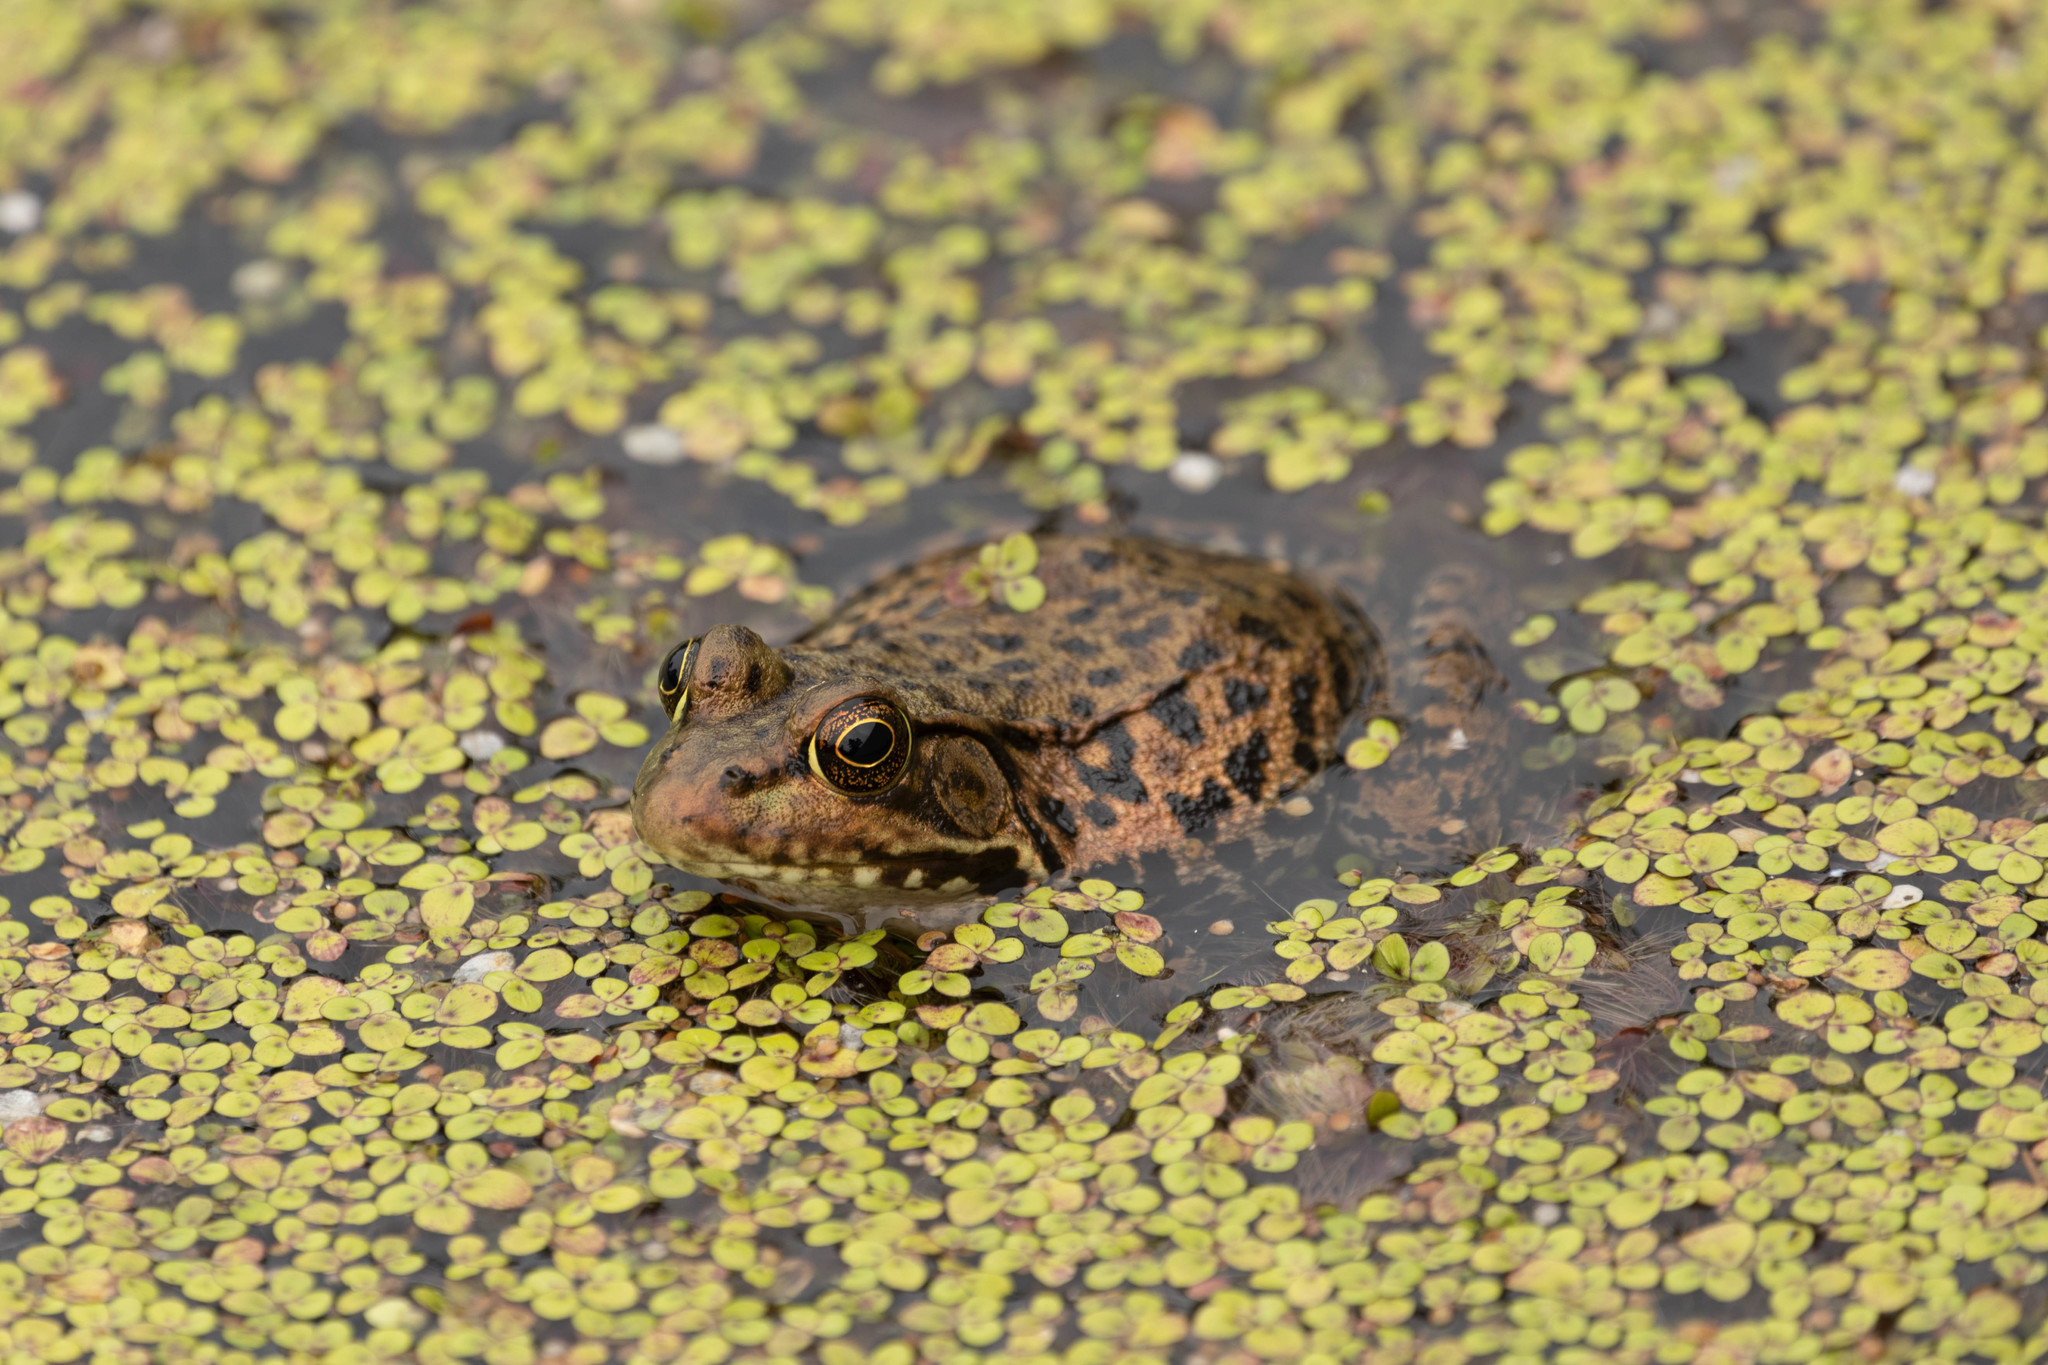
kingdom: Animalia
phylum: Chordata
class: Amphibia
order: Anura
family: Ranidae
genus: Lithobates
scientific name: Lithobates clamitans
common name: Green frog
